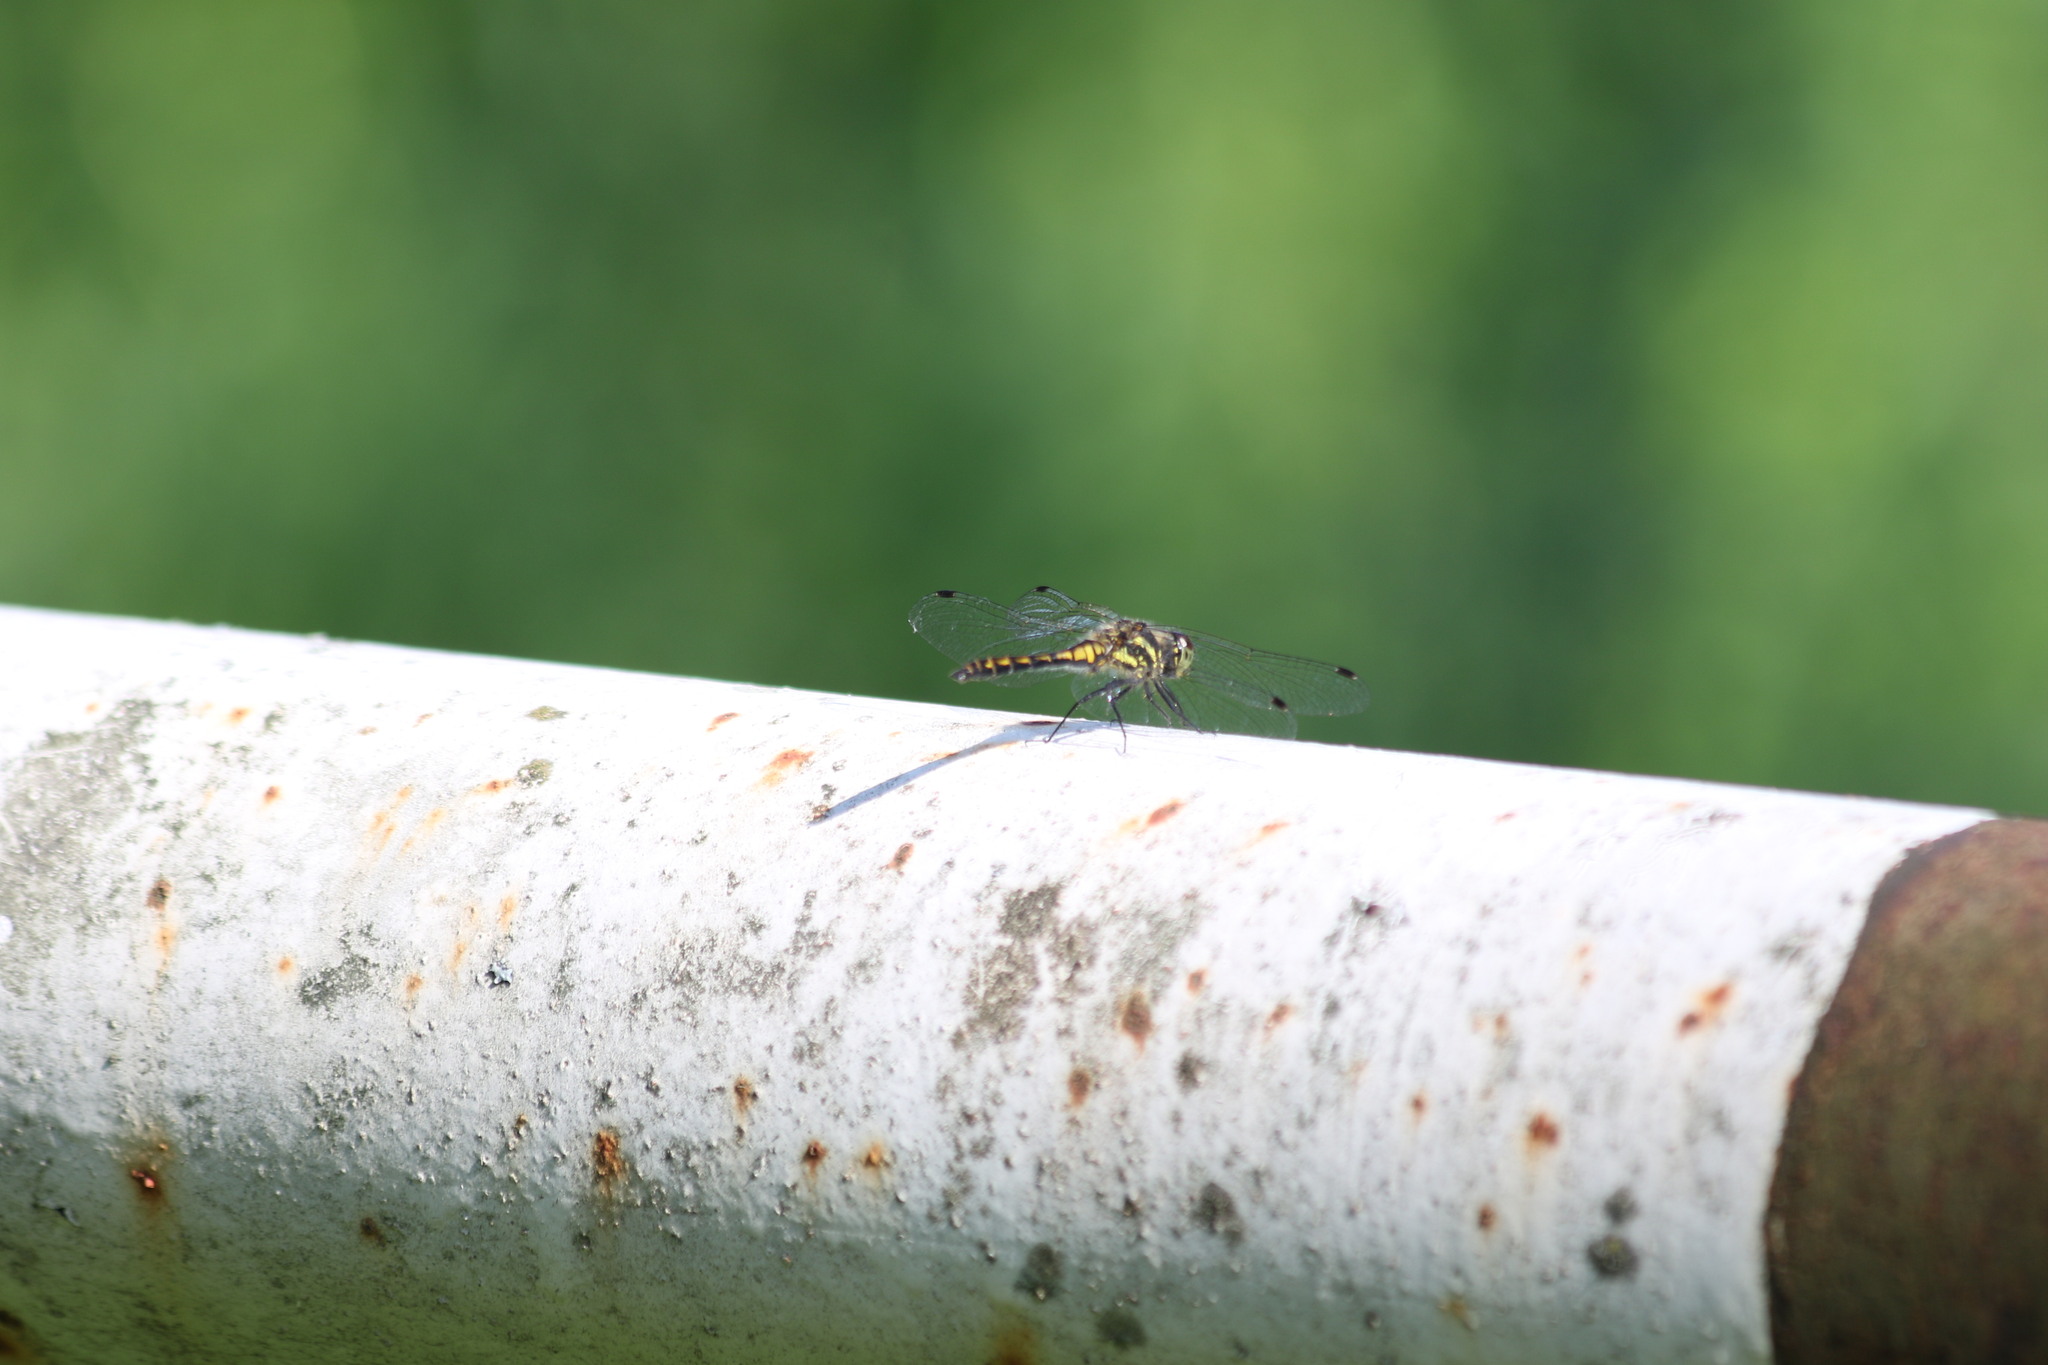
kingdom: Animalia
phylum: Arthropoda
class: Insecta
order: Odonata
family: Libellulidae
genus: Sympetrum
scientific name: Sympetrum danae
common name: Black darter
